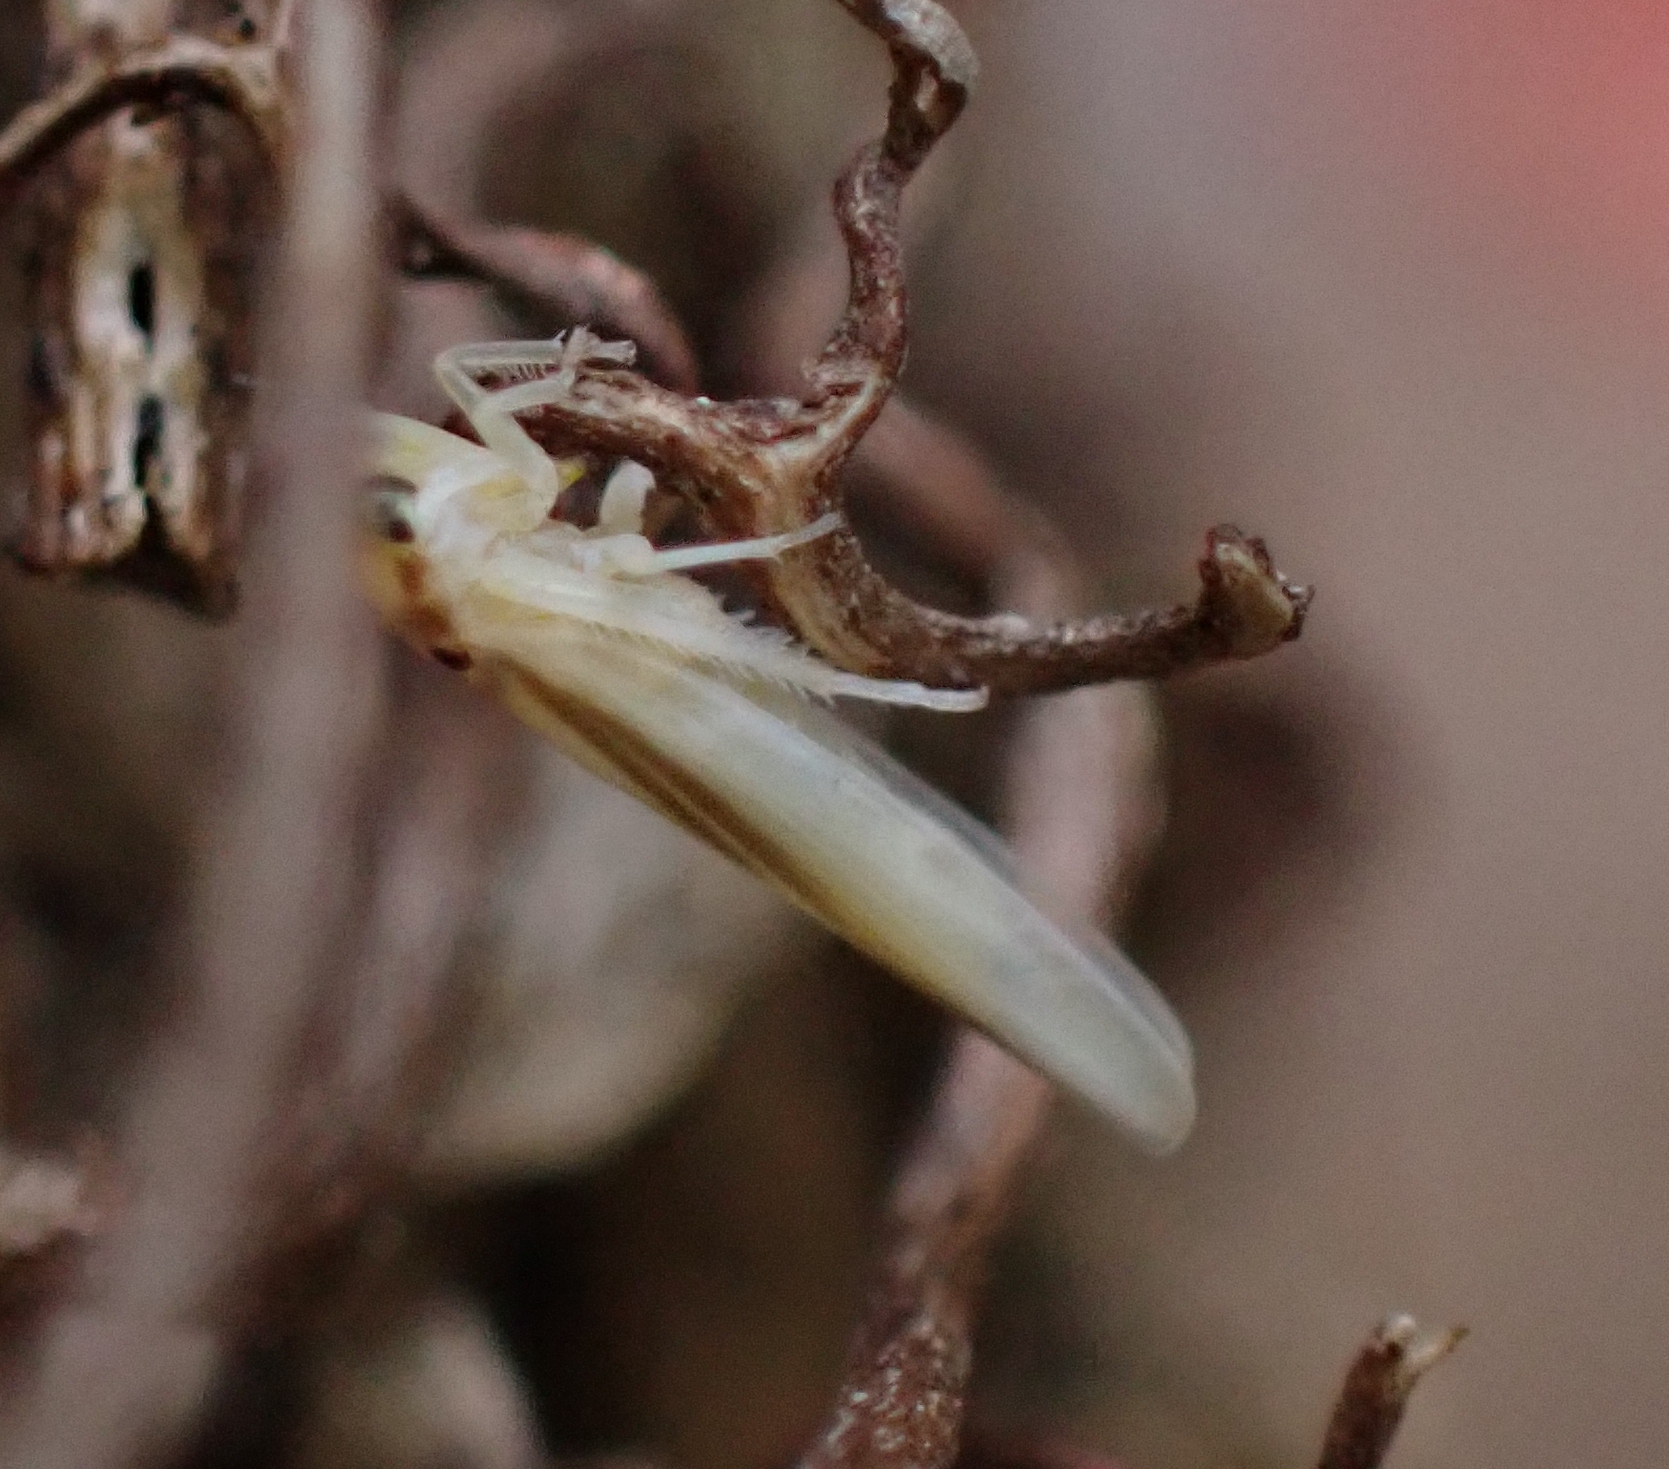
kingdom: Animalia
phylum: Arthropoda
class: Insecta
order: Hemiptera
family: Cicadellidae
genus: Zygina
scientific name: Zygina lunaris
